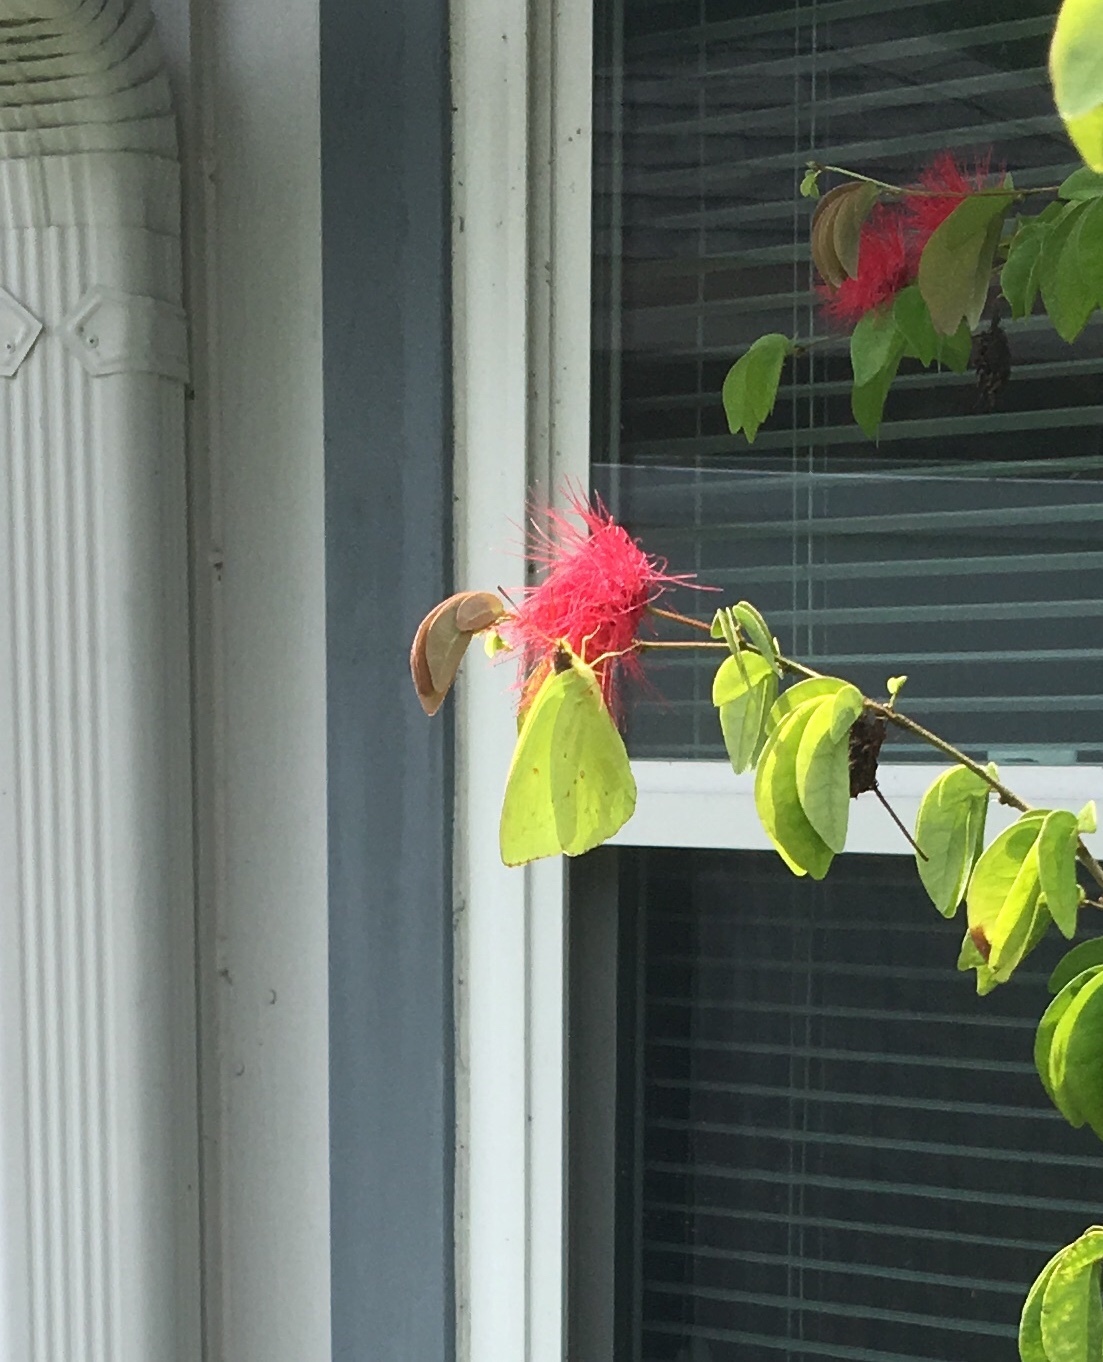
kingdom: Animalia
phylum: Arthropoda
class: Insecta
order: Lepidoptera
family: Pieridae
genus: Phoebis
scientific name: Phoebis sennae
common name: Cloudless sulphur
